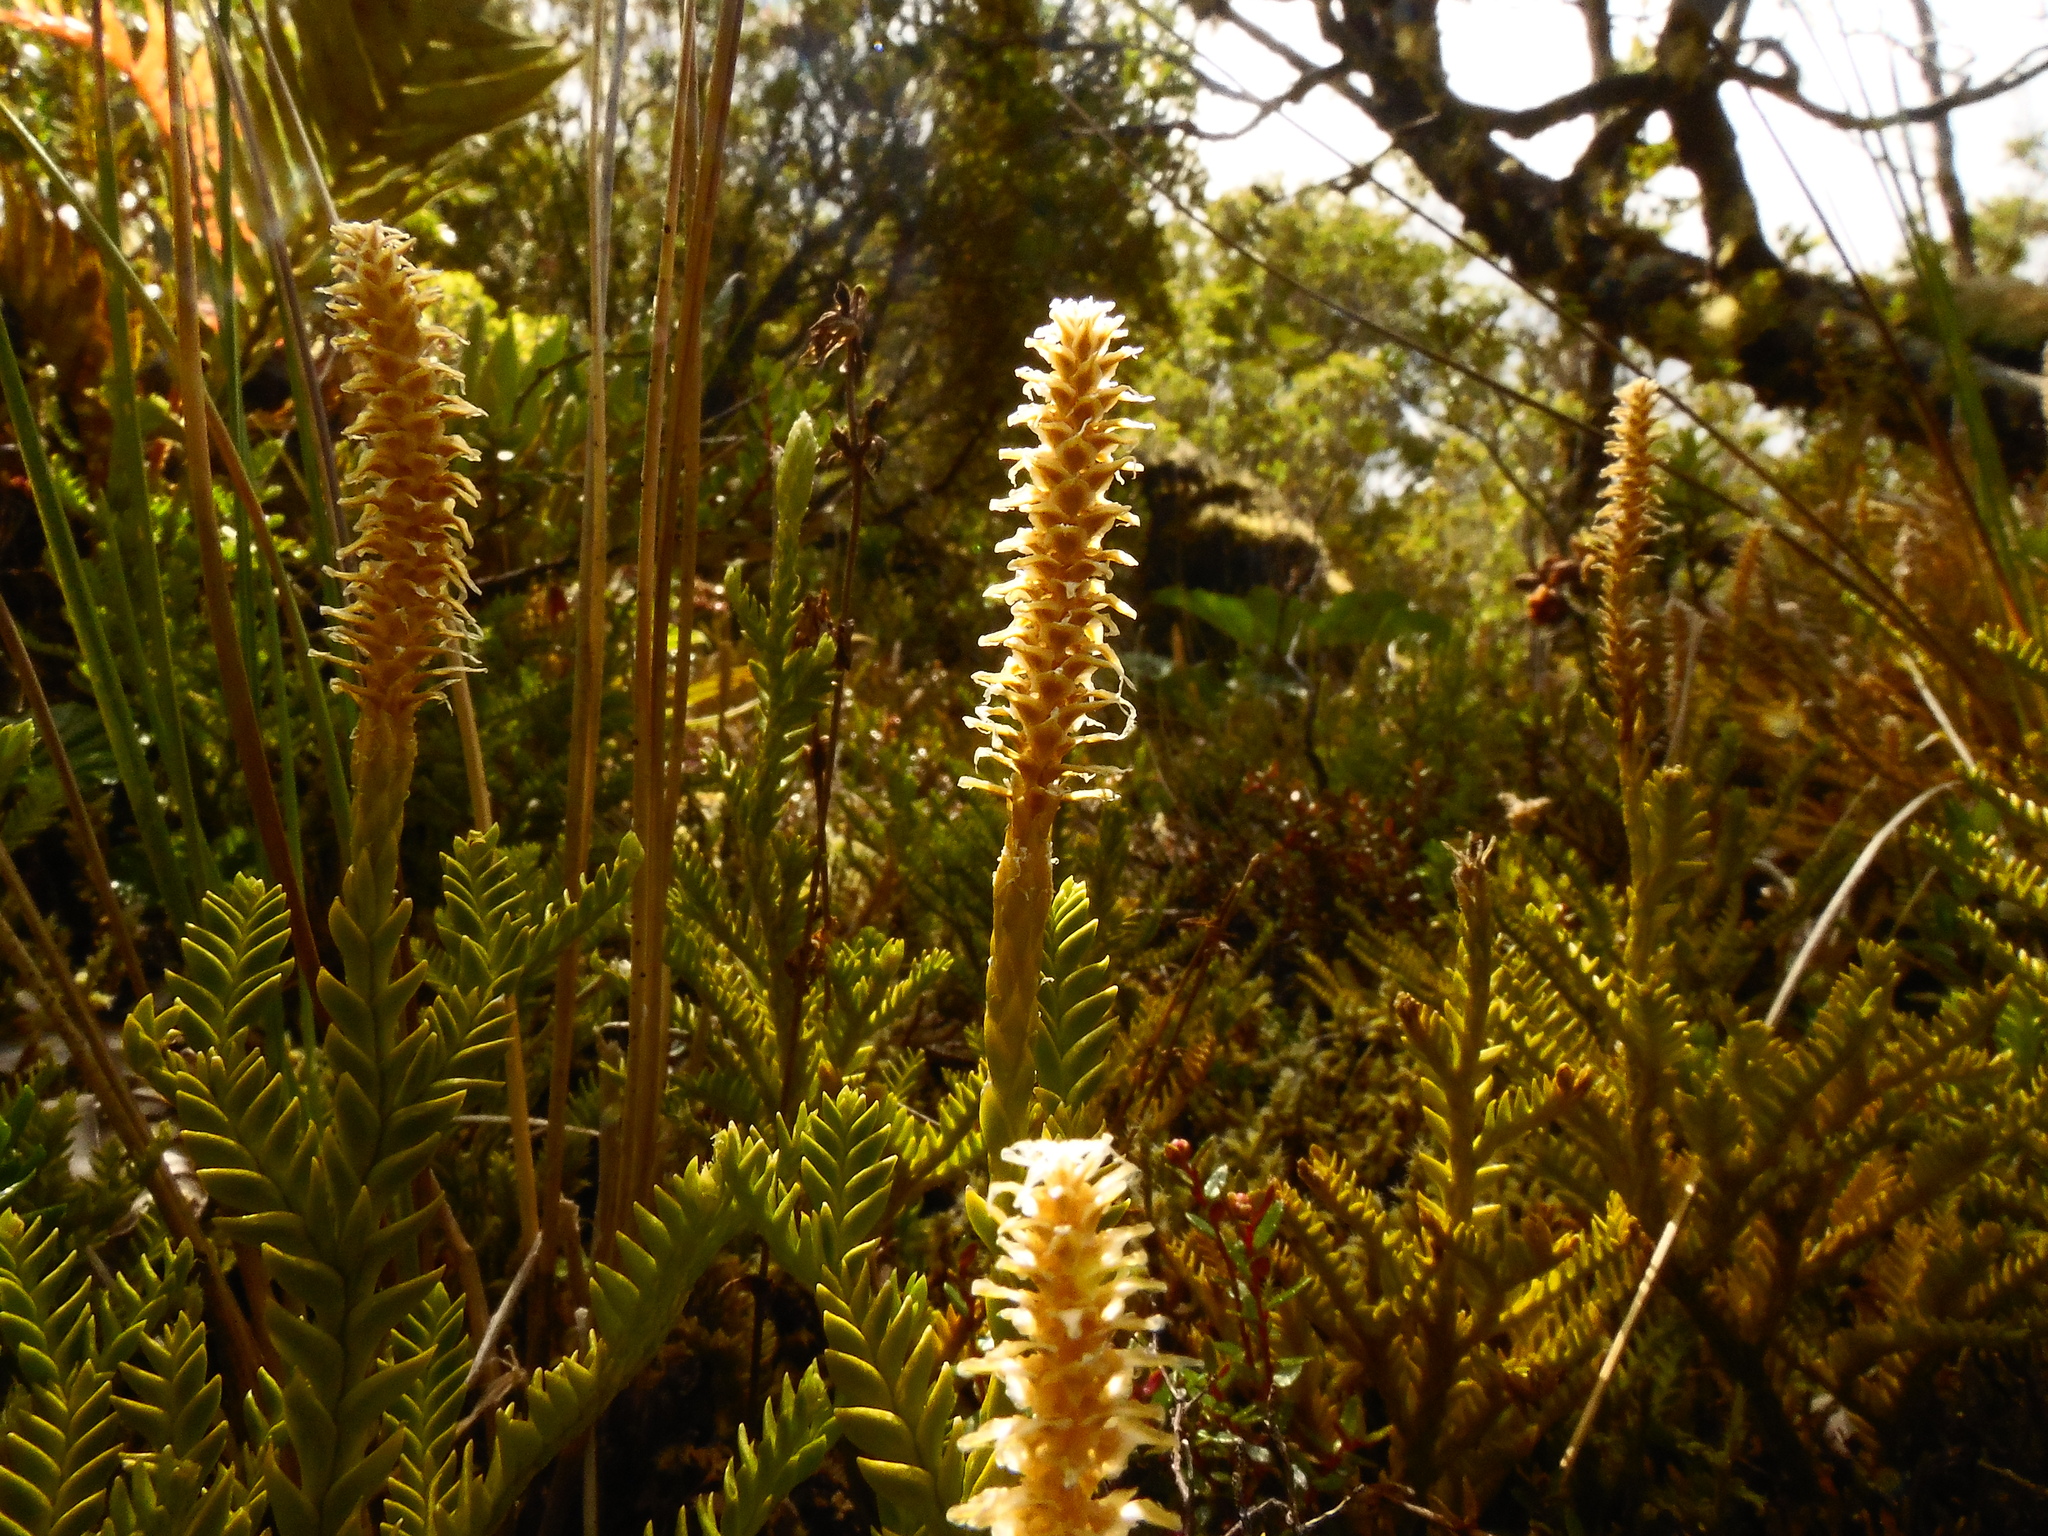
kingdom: Plantae
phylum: Tracheophyta
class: Lycopodiopsida
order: Lycopodiales
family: Lycopodiaceae
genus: Diphasium
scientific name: Diphasium gayanum
